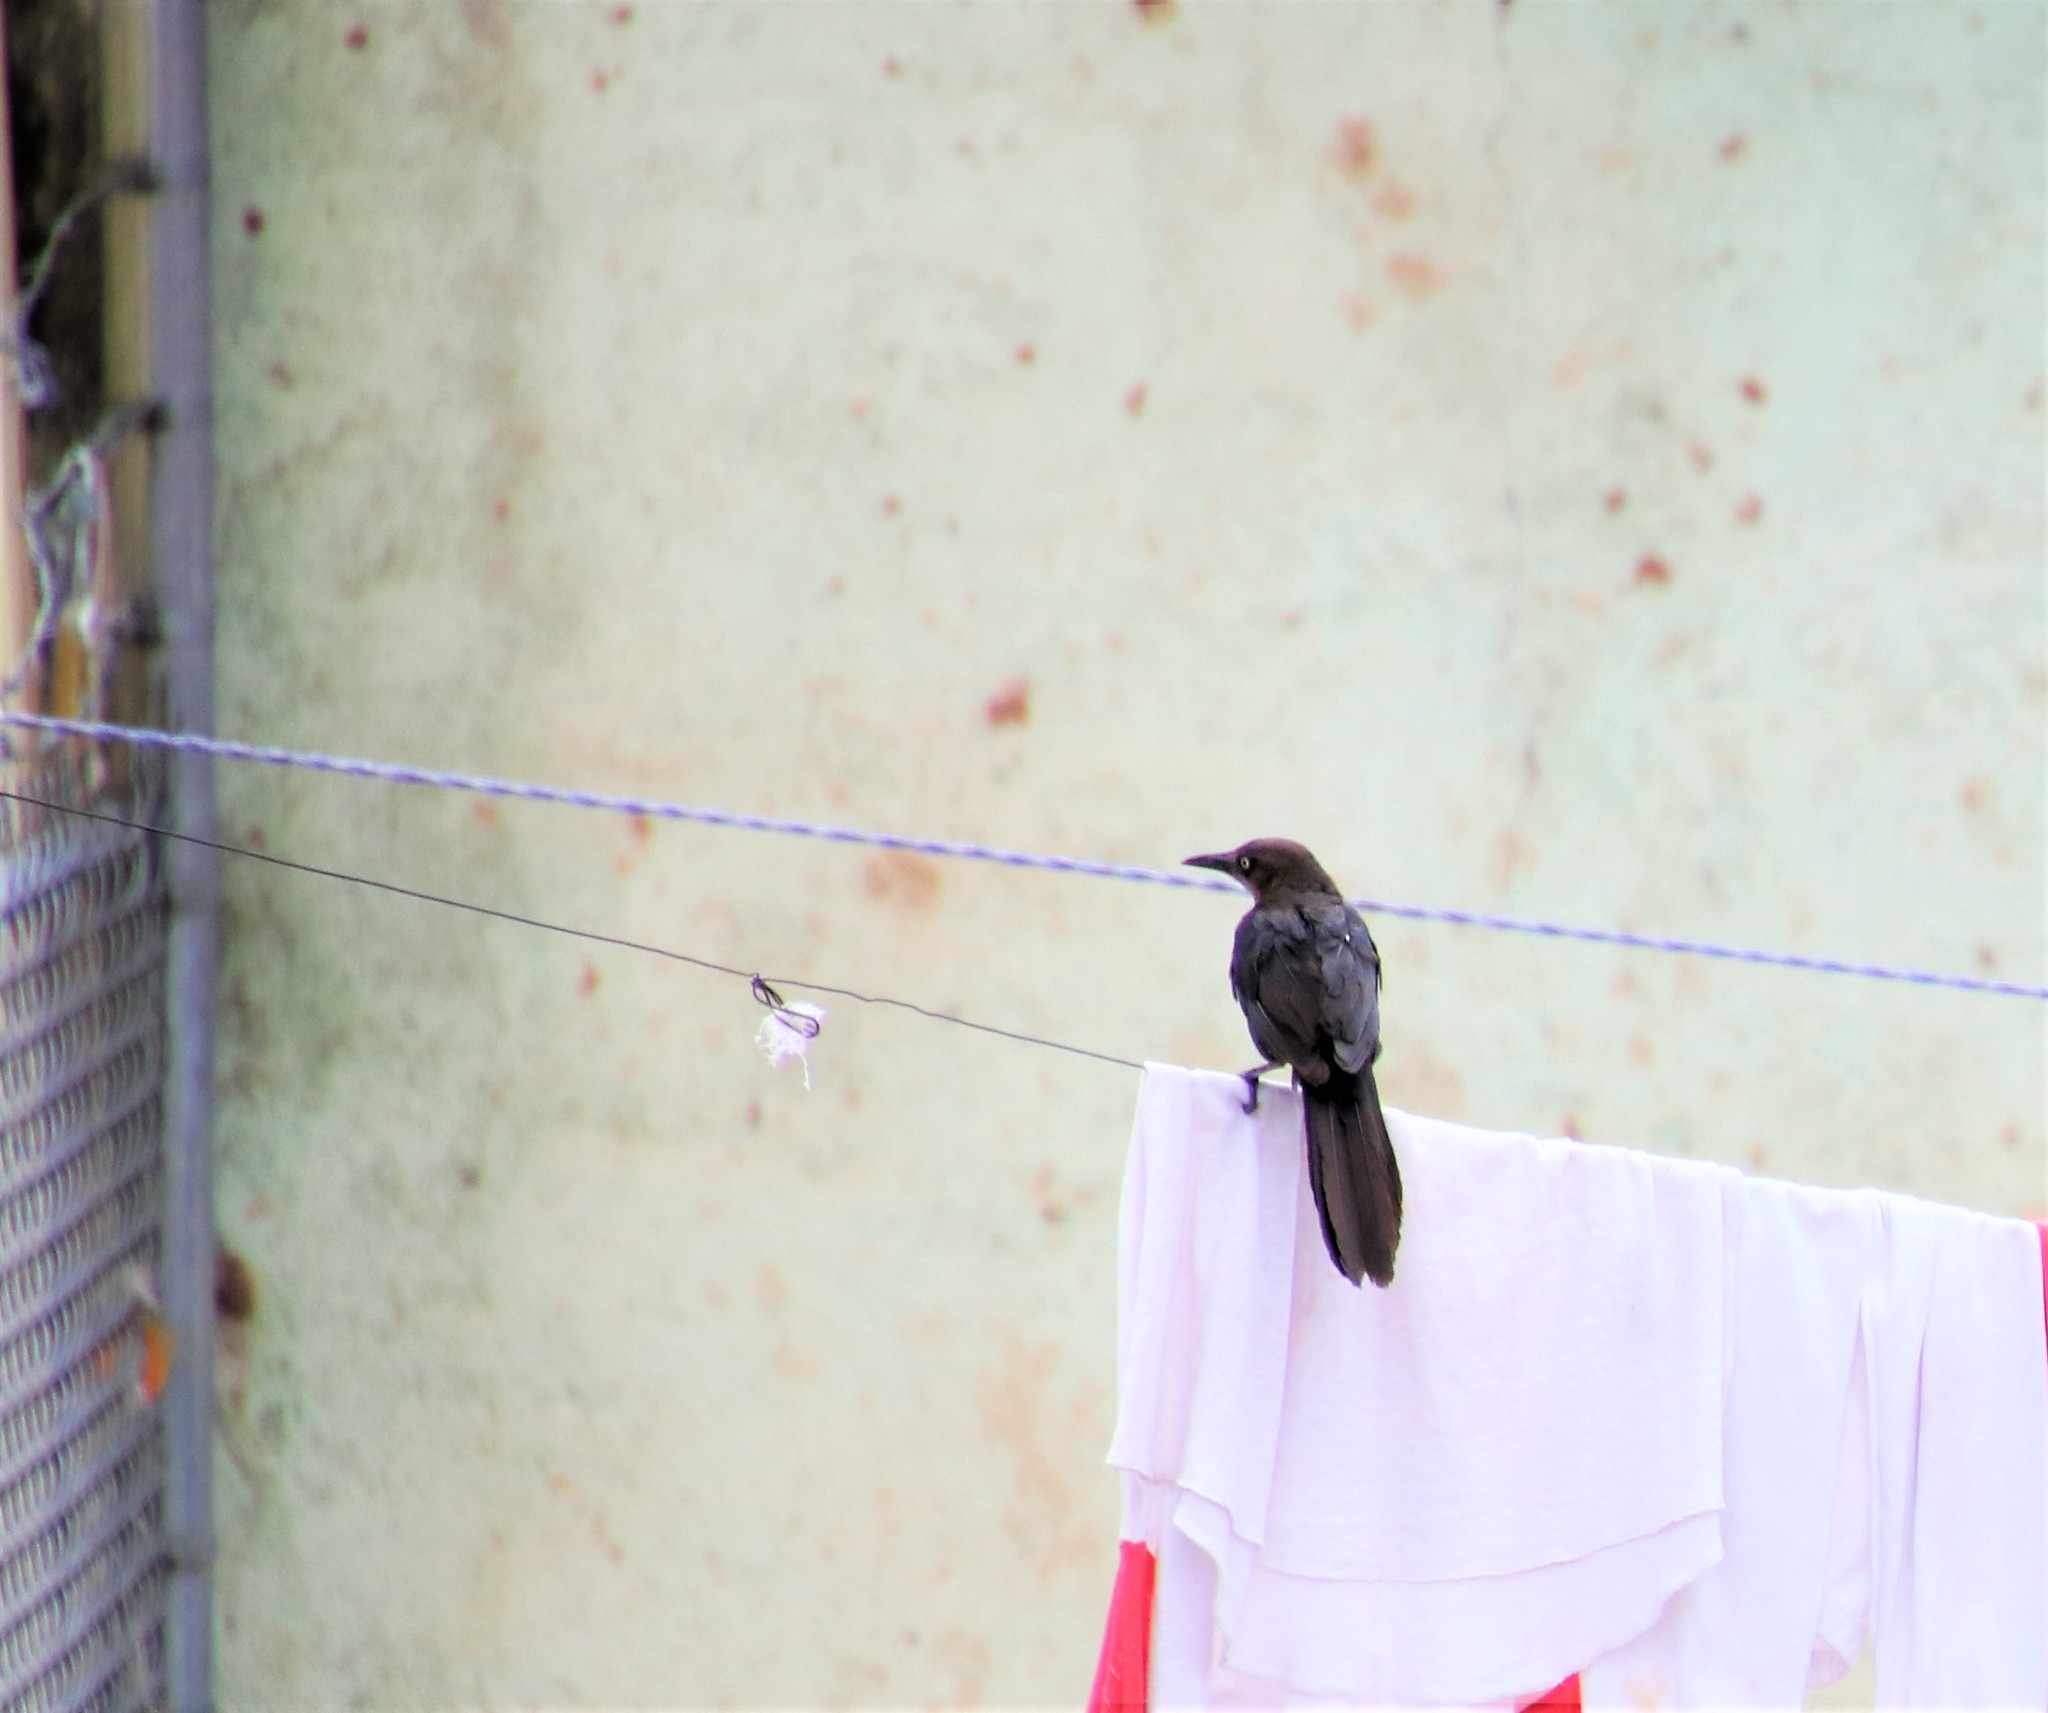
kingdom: Animalia
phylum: Chordata
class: Aves
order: Passeriformes
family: Icteridae
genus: Quiscalus
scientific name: Quiscalus mexicanus
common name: Great-tailed grackle
